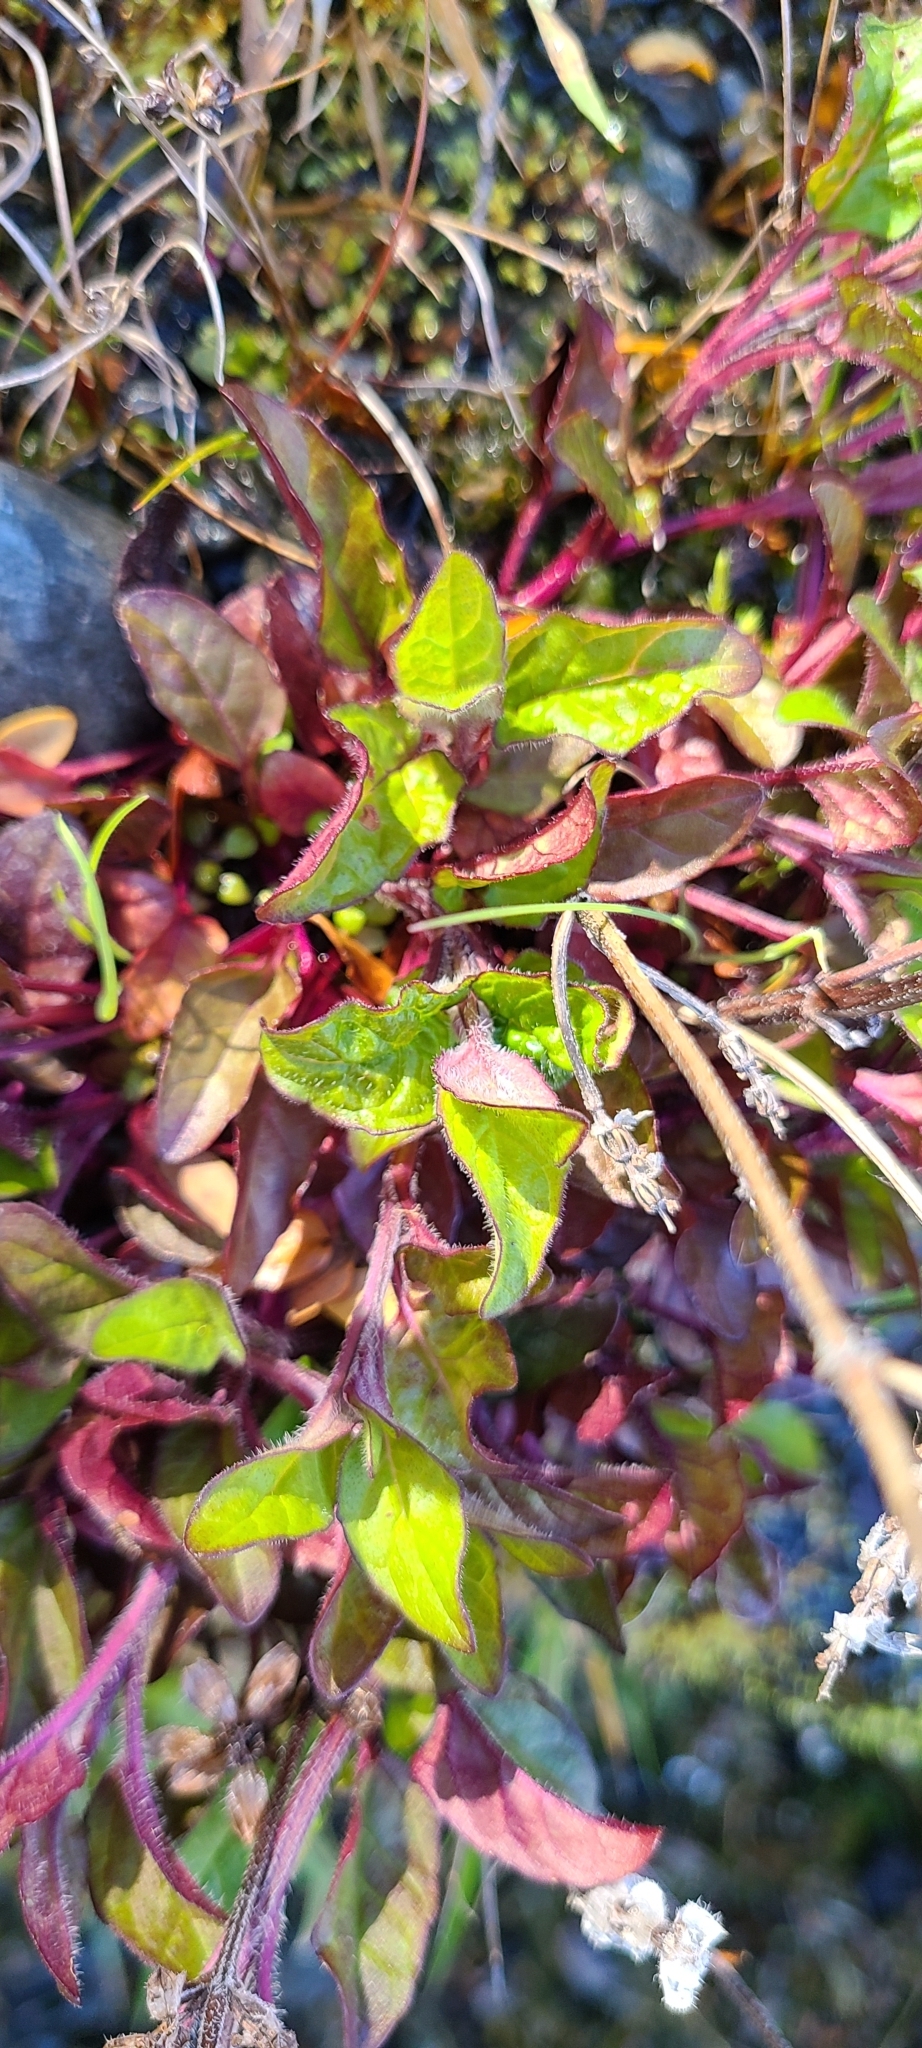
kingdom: Plantae
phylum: Tracheophyta
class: Magnoliopsida
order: Lamiales
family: Lamiaceae
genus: Prunella
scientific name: Prunella vulgaris
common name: Heal-all
